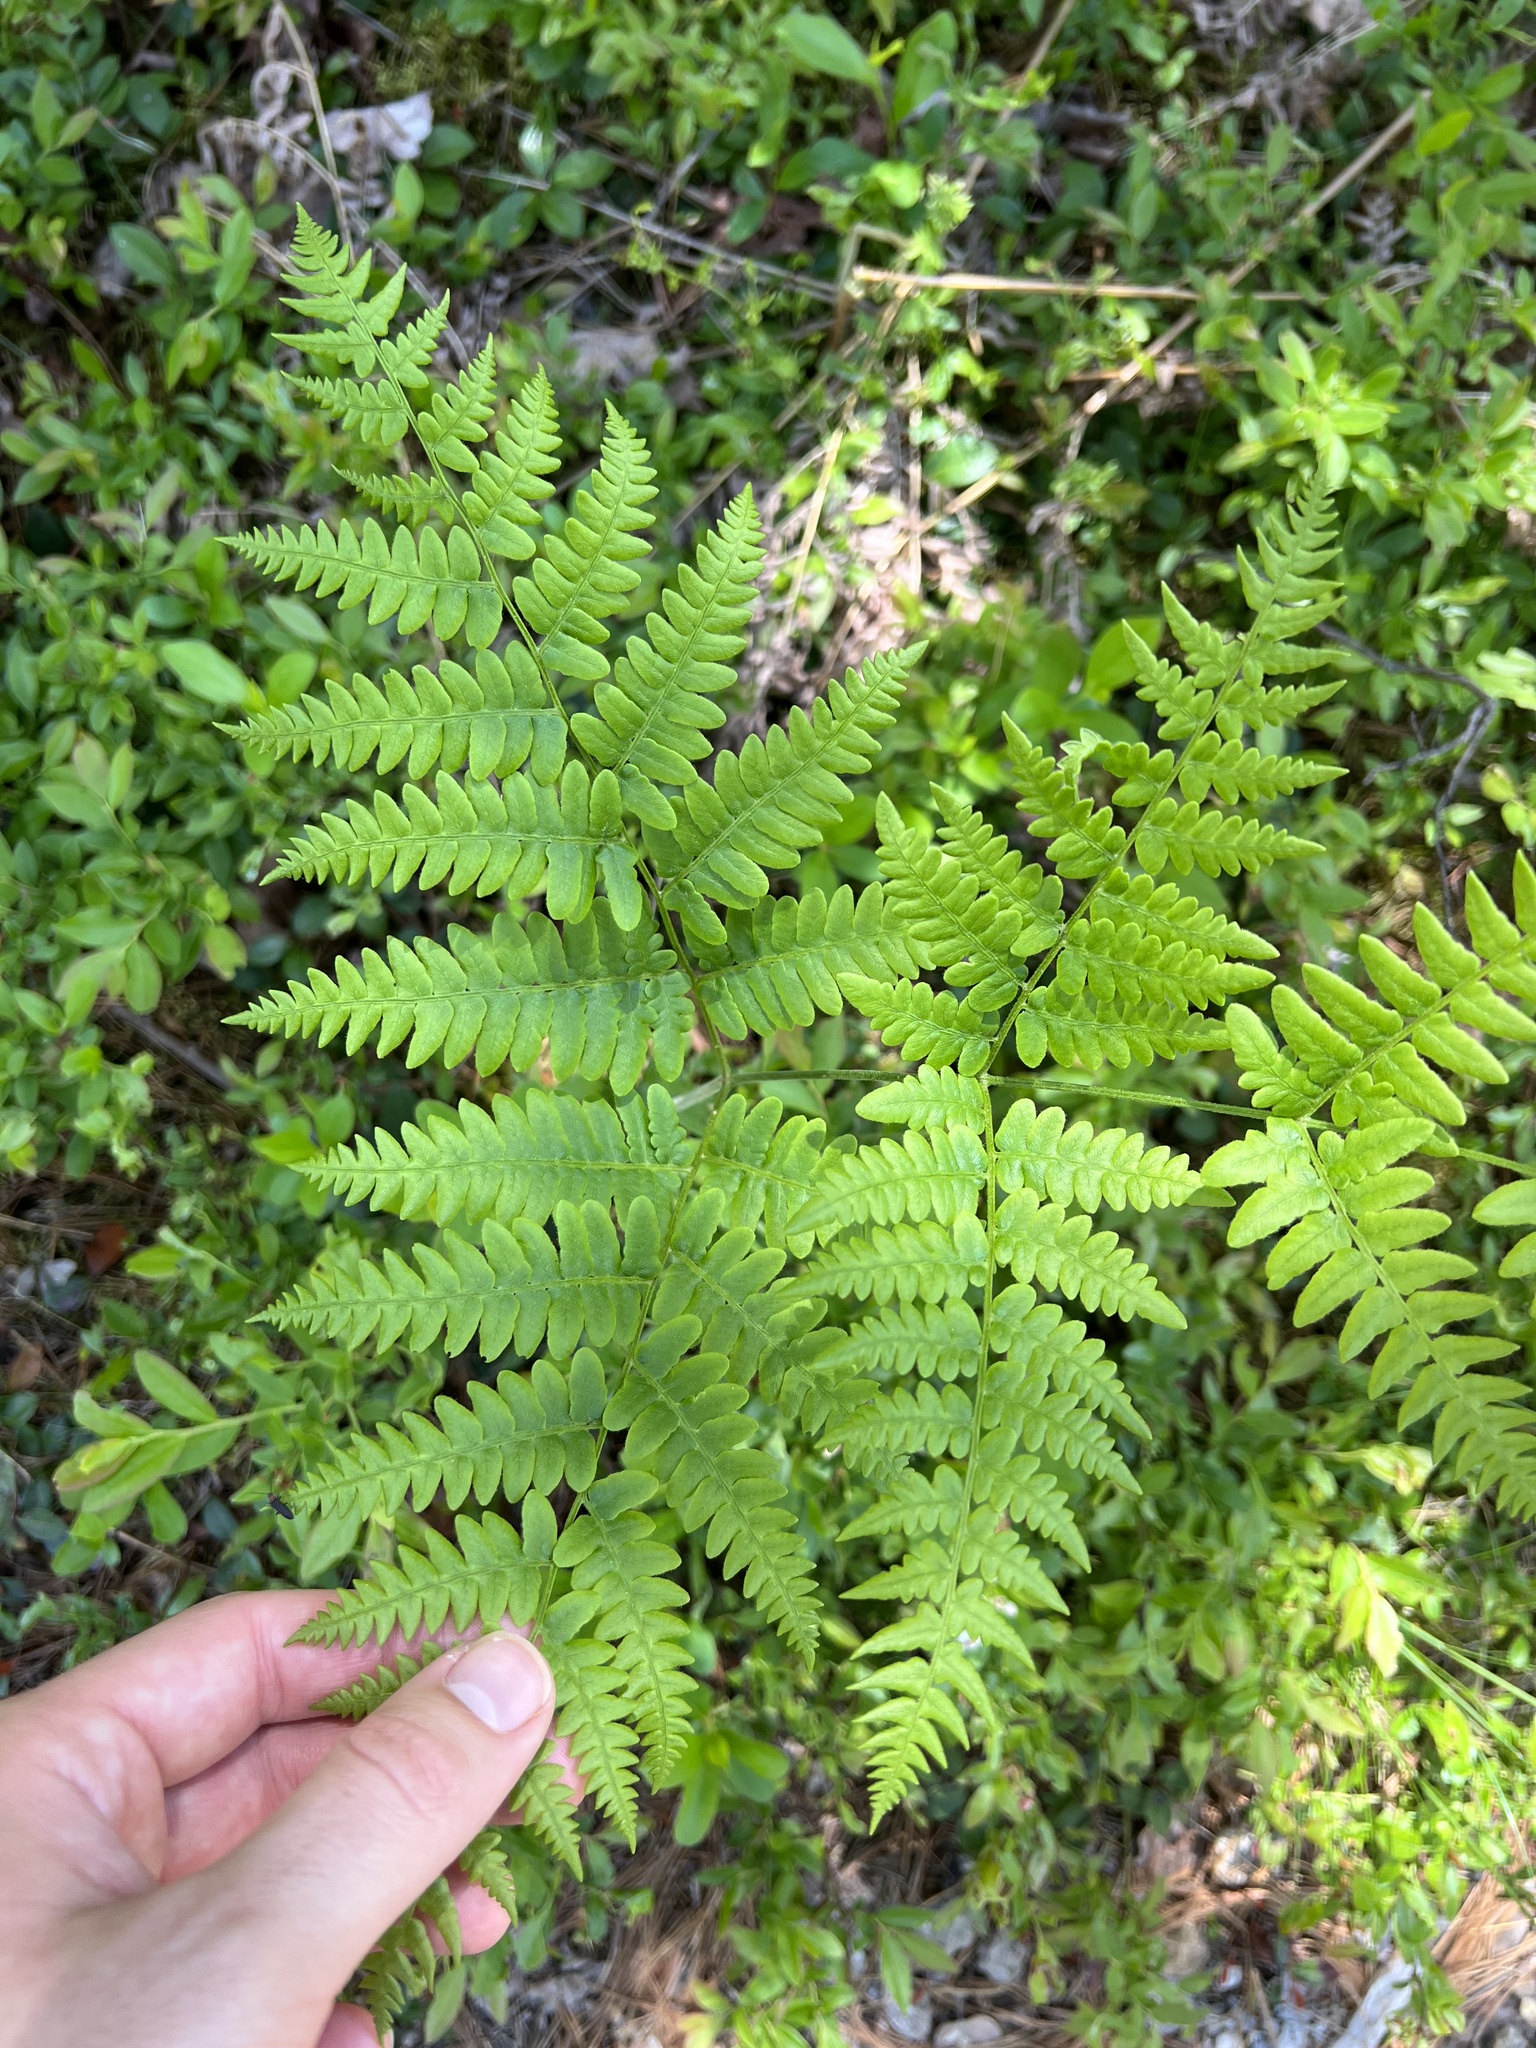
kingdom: Plantae
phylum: Tracheophyta
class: Polypodiopsida
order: Polypodiales
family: Dennstaedtiaceae
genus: Pteridium
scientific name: Pteridium aquilinum
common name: Bracken
